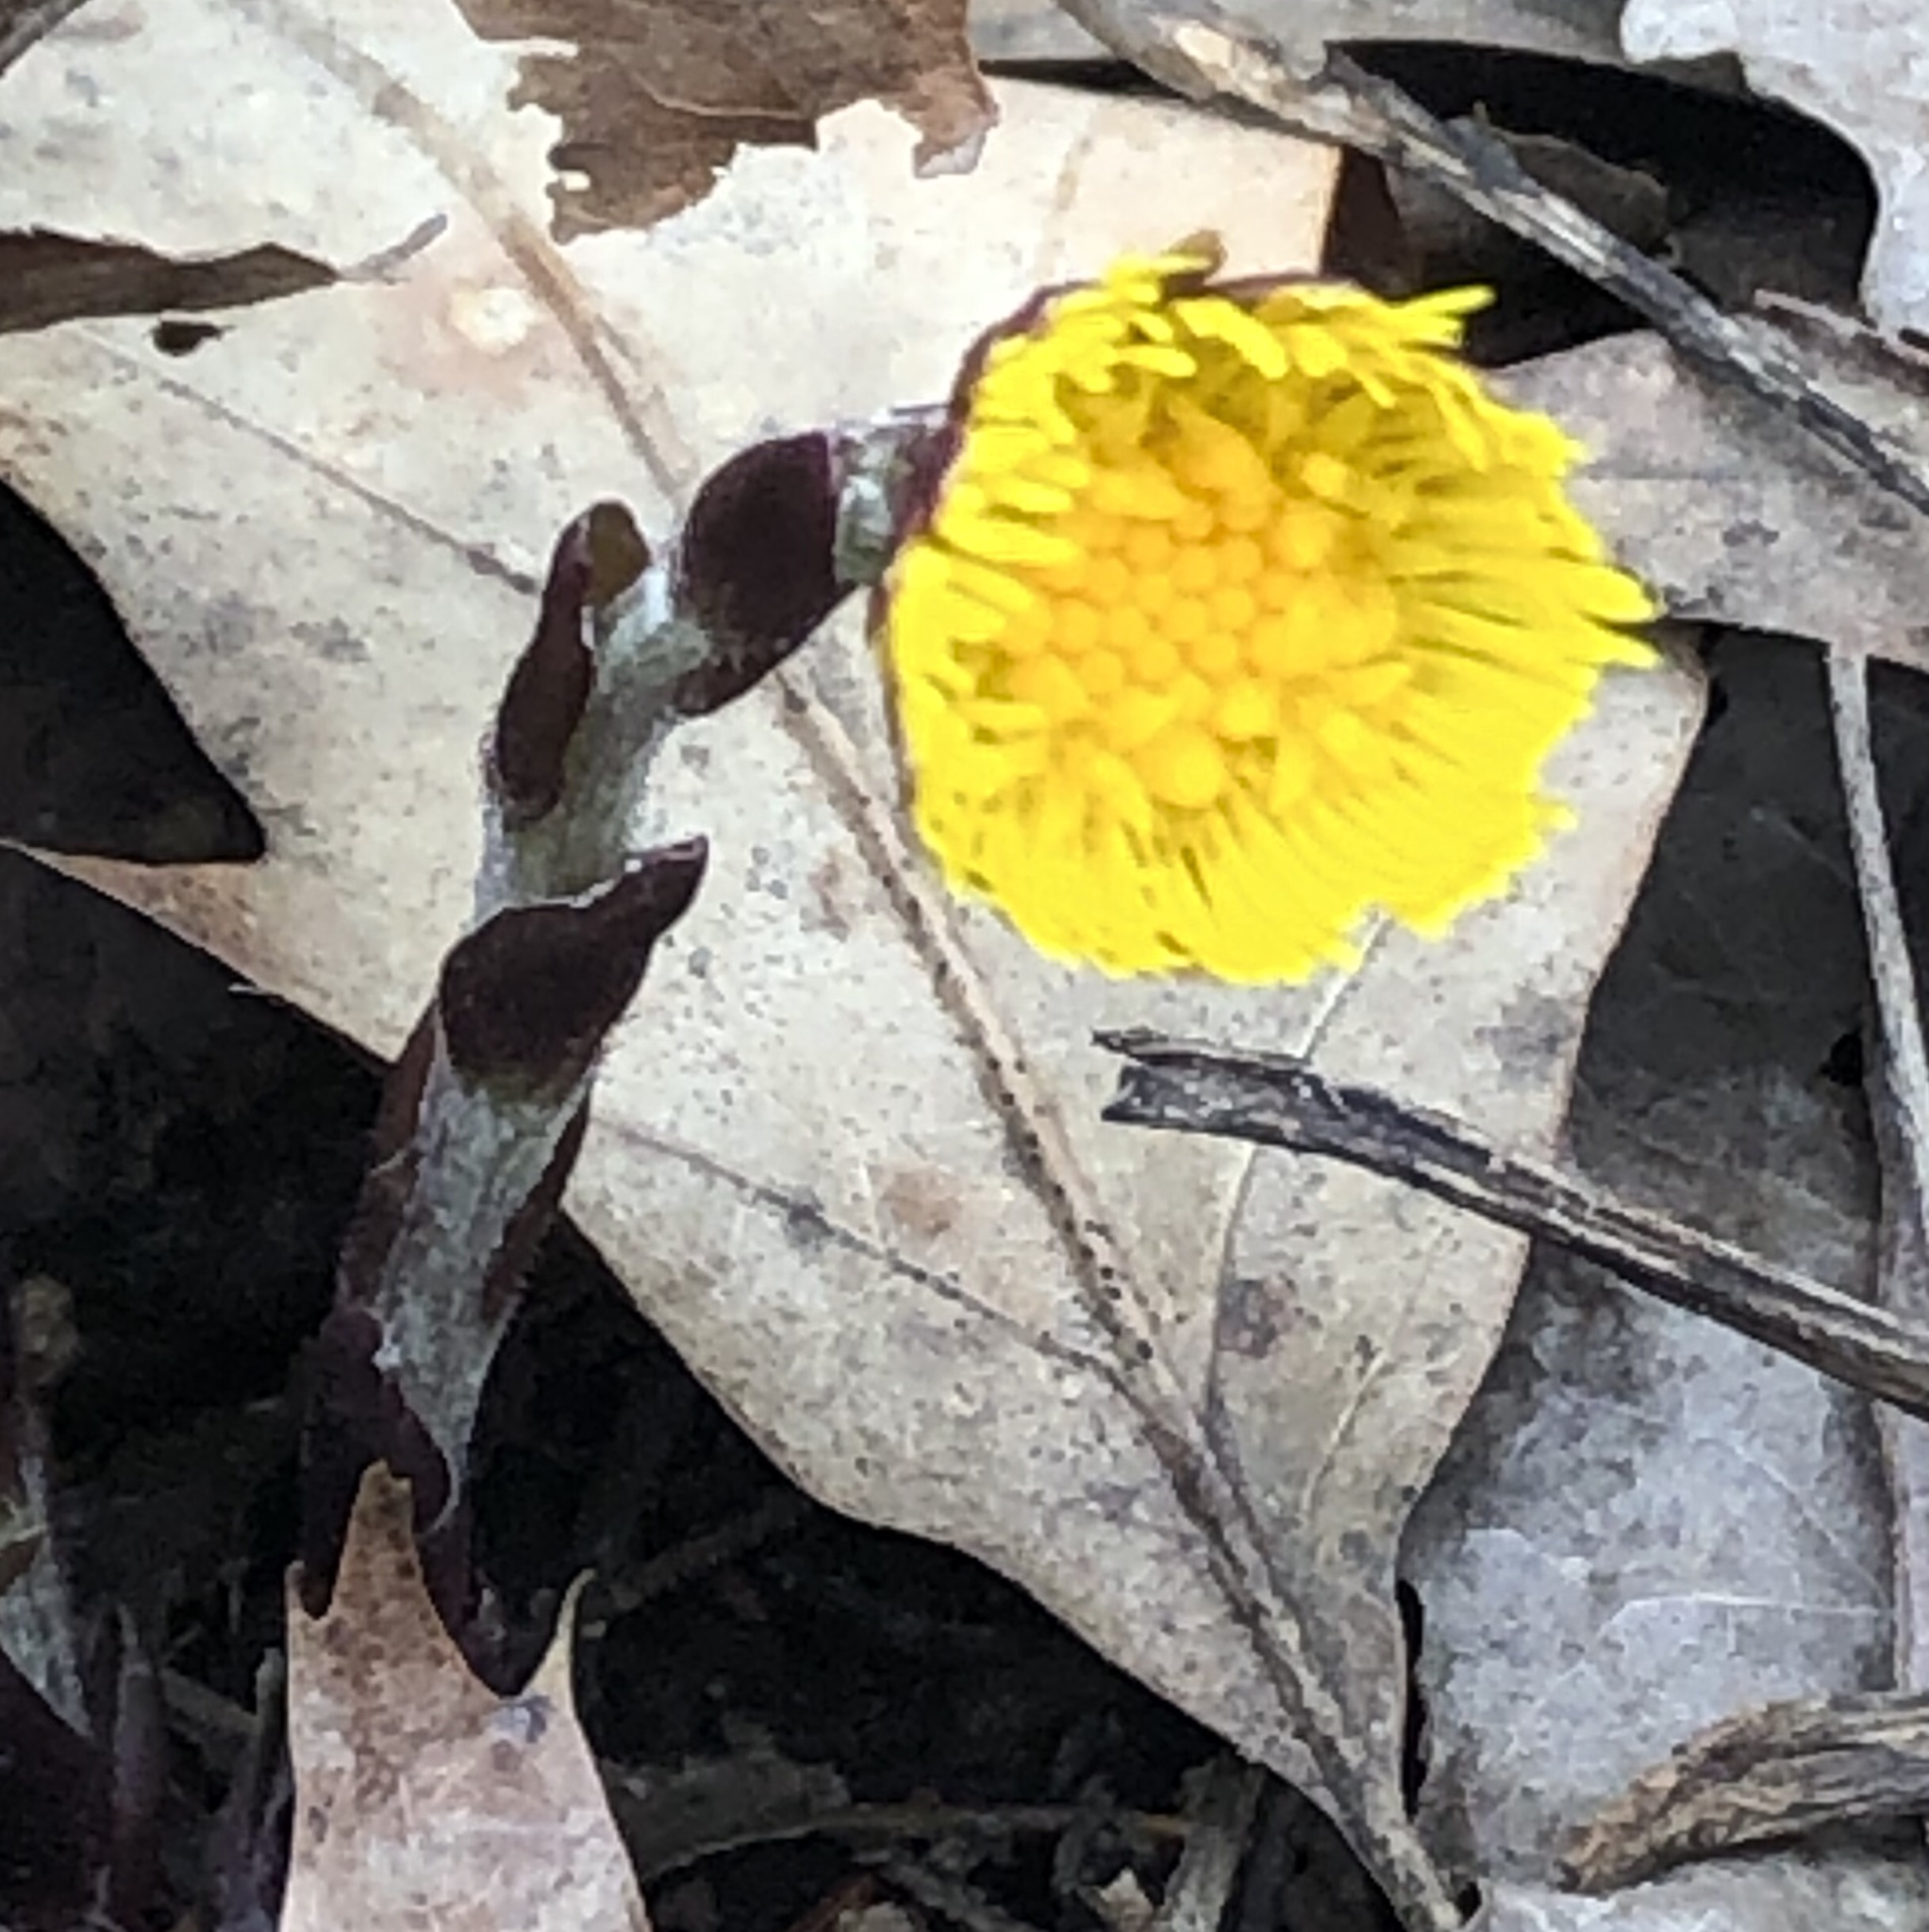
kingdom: Plantae
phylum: Tracheophyta
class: Magnoliopsida
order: Asterales
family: Asteraceae
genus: Tussilago
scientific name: Tussilago farfara
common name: Coltsfoot
